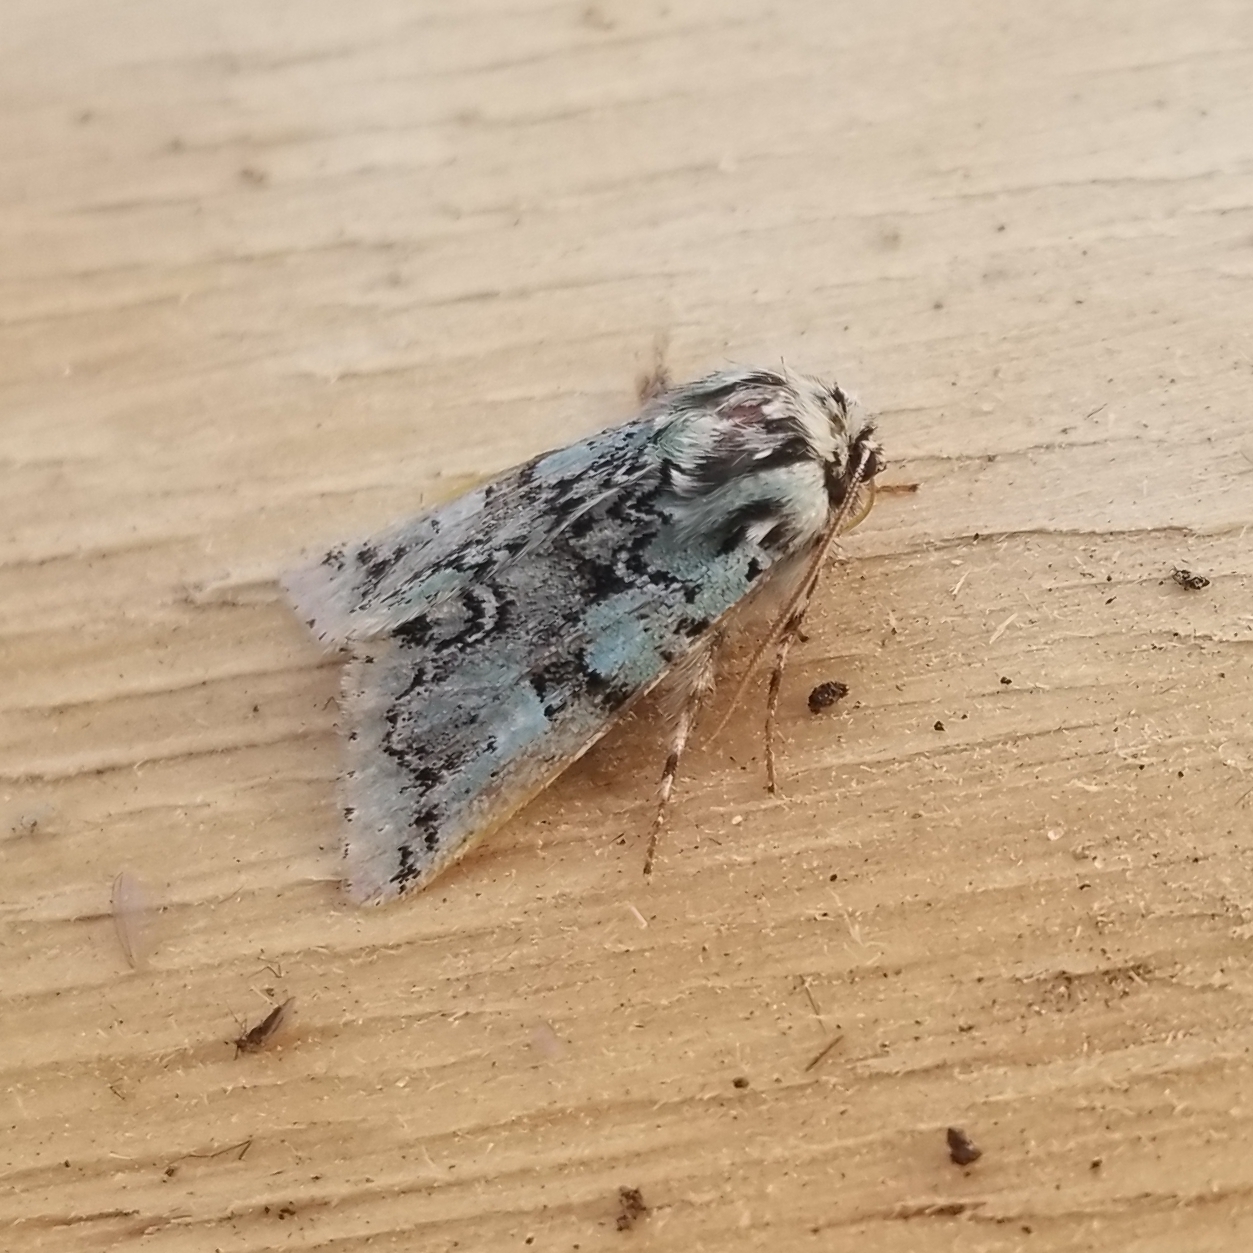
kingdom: Animalia
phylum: Arthropoda
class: Insecta
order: Lepidoptera
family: Noctuidae
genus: Feralia
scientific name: Feralia major
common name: Major sallow
